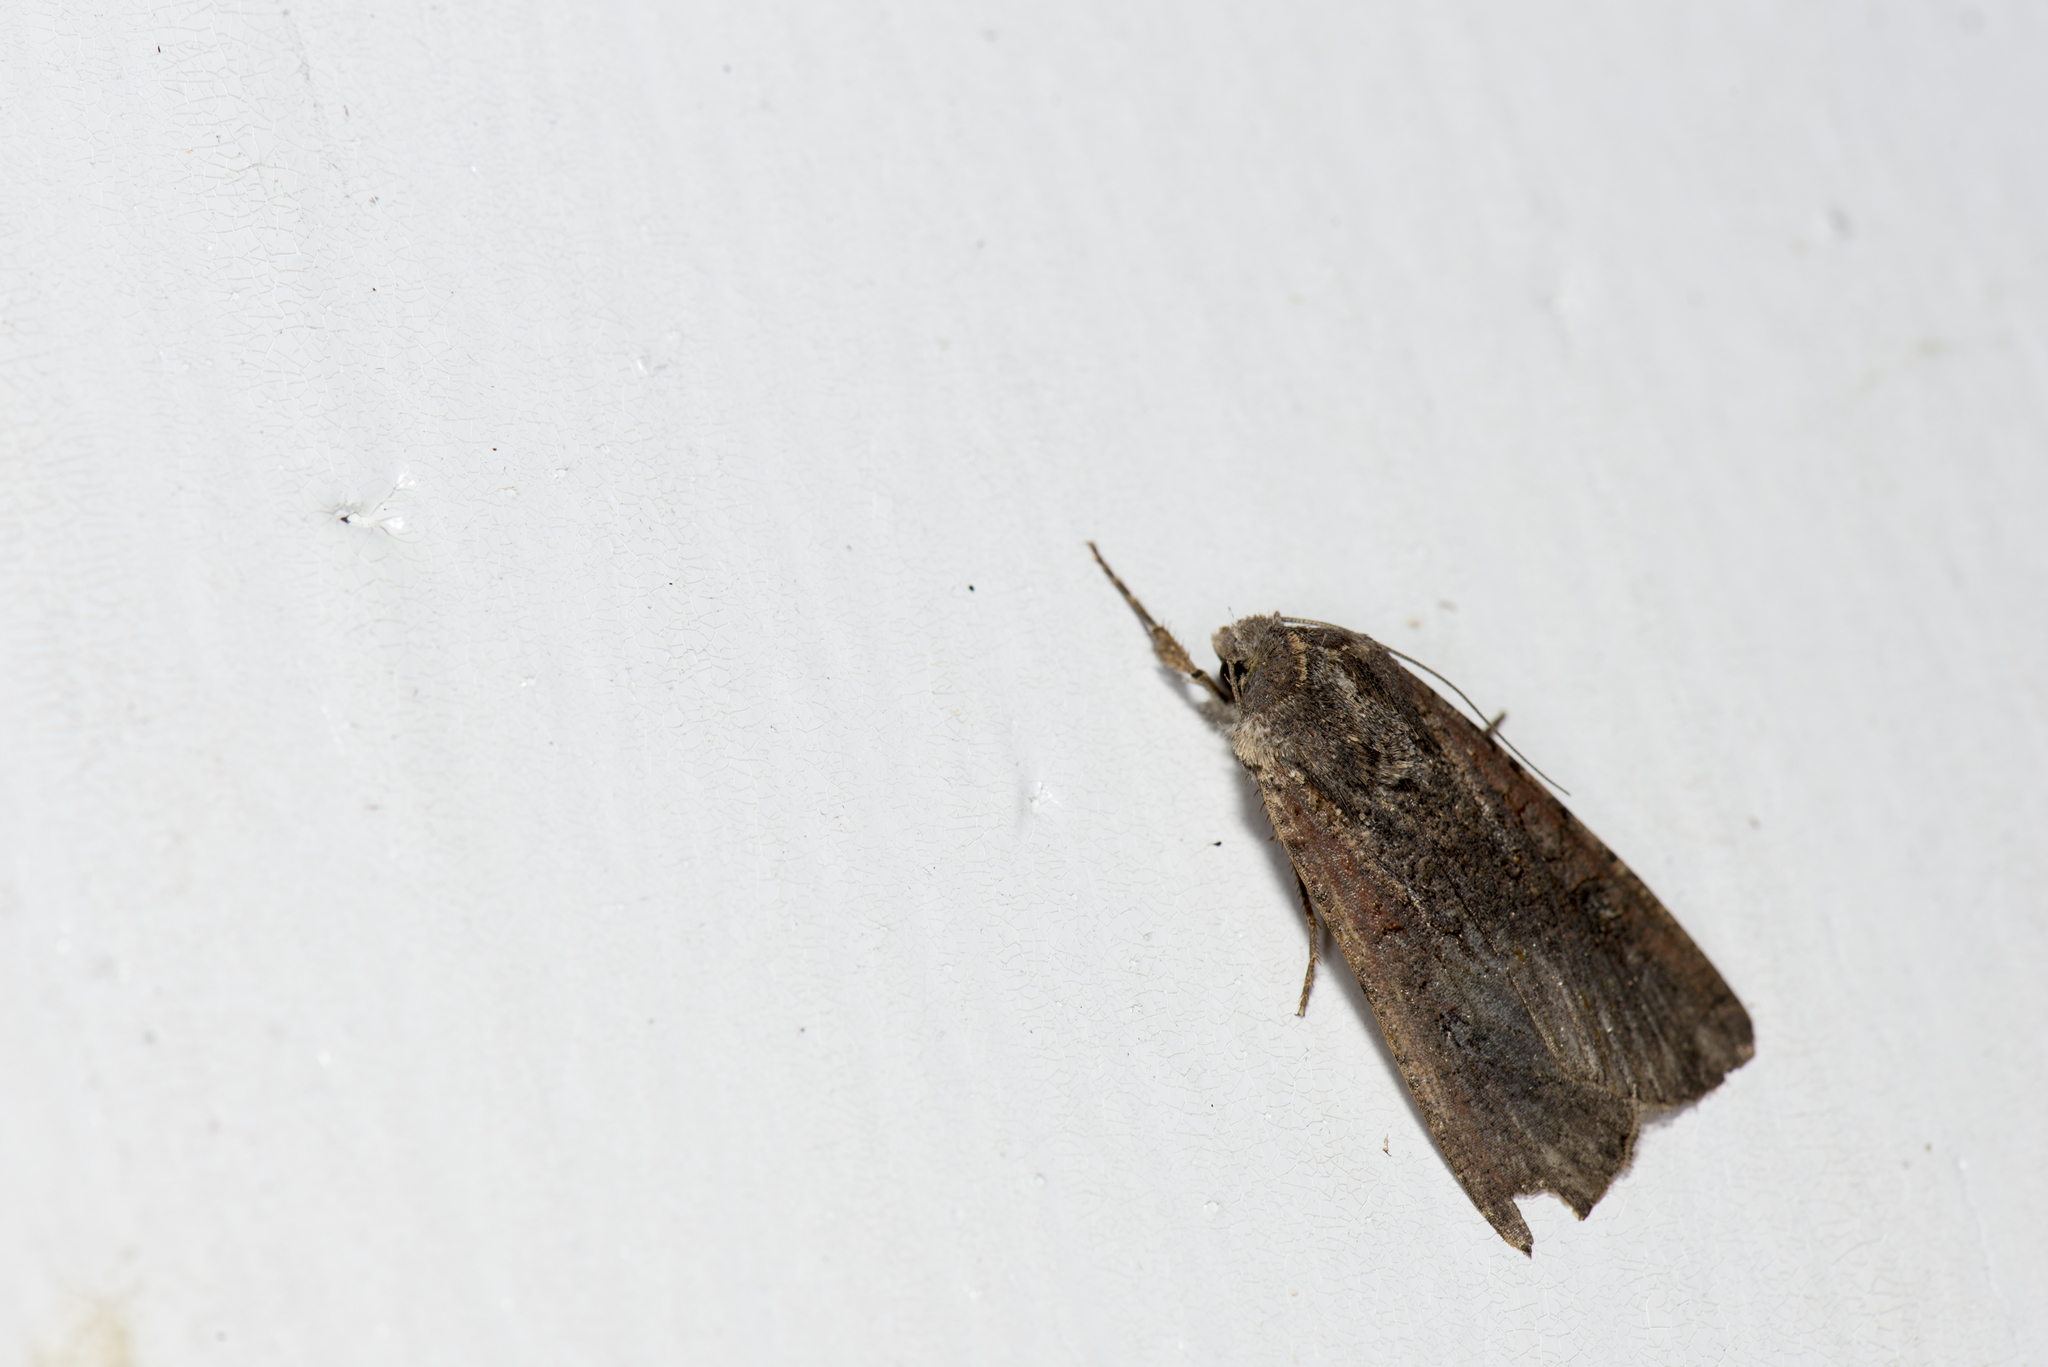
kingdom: Animalia
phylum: Arthropoda
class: Insecta
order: Lepidoptera
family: Noctuidae
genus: Peridroma
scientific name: Peridroma saucia
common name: Pearly underwing
